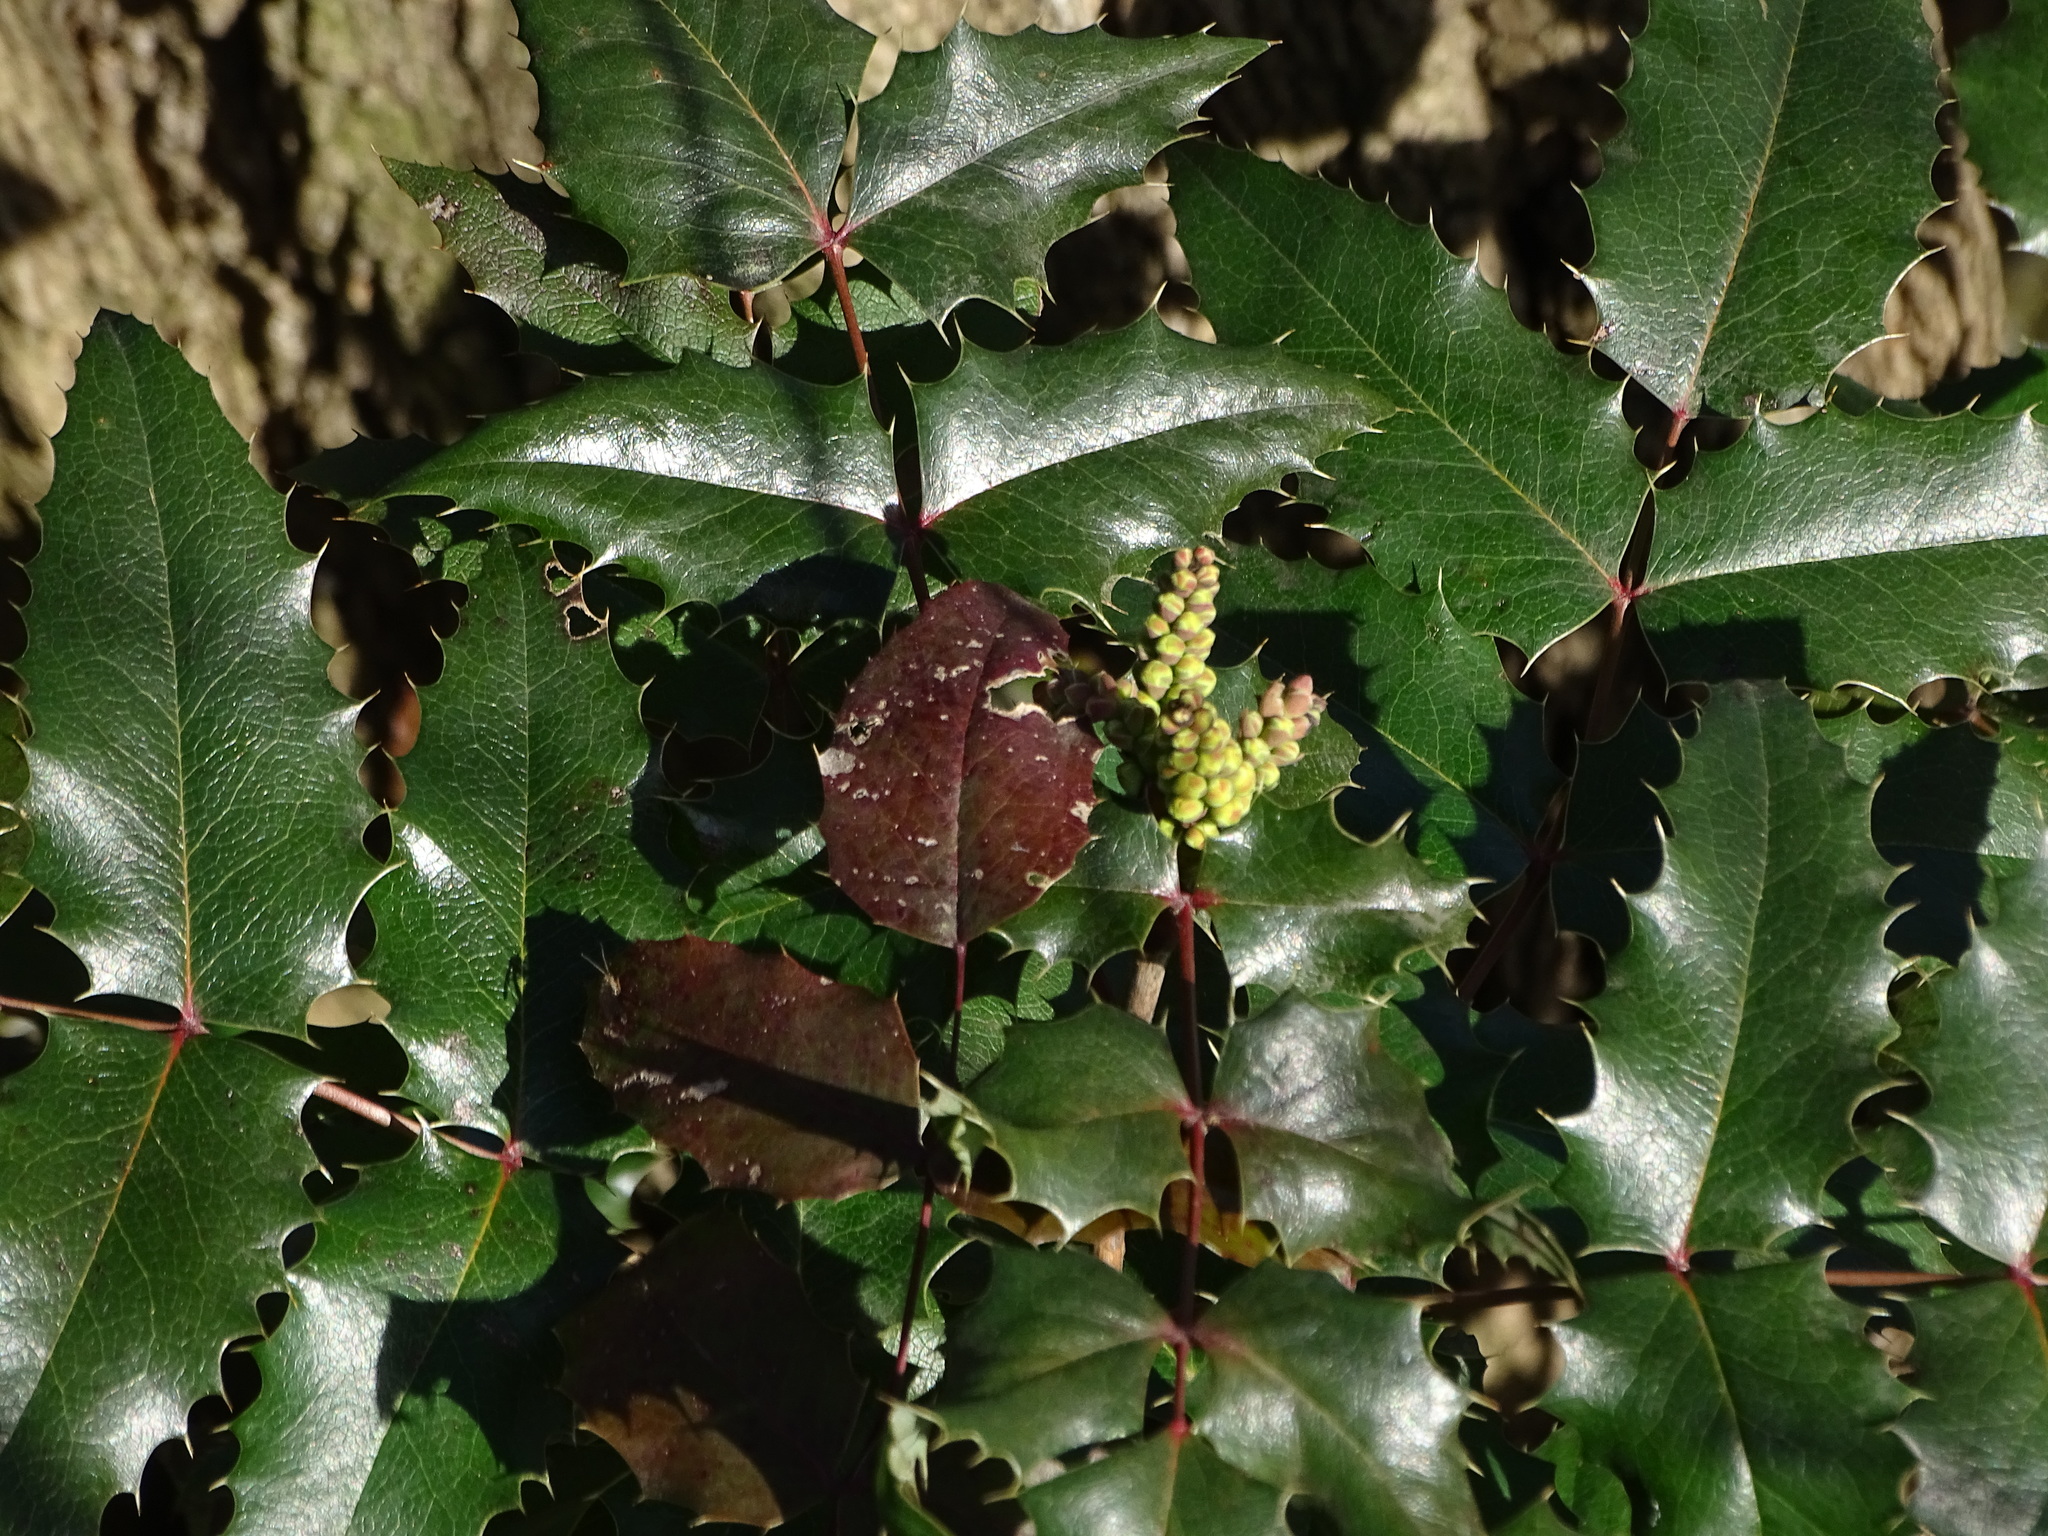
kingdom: Plantae
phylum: Tracheophyta
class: Magnoliopsida
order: Ranunculales
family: Berberidaceae
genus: Mahonia
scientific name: Mahonia aquifolium
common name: Oregon-grape
